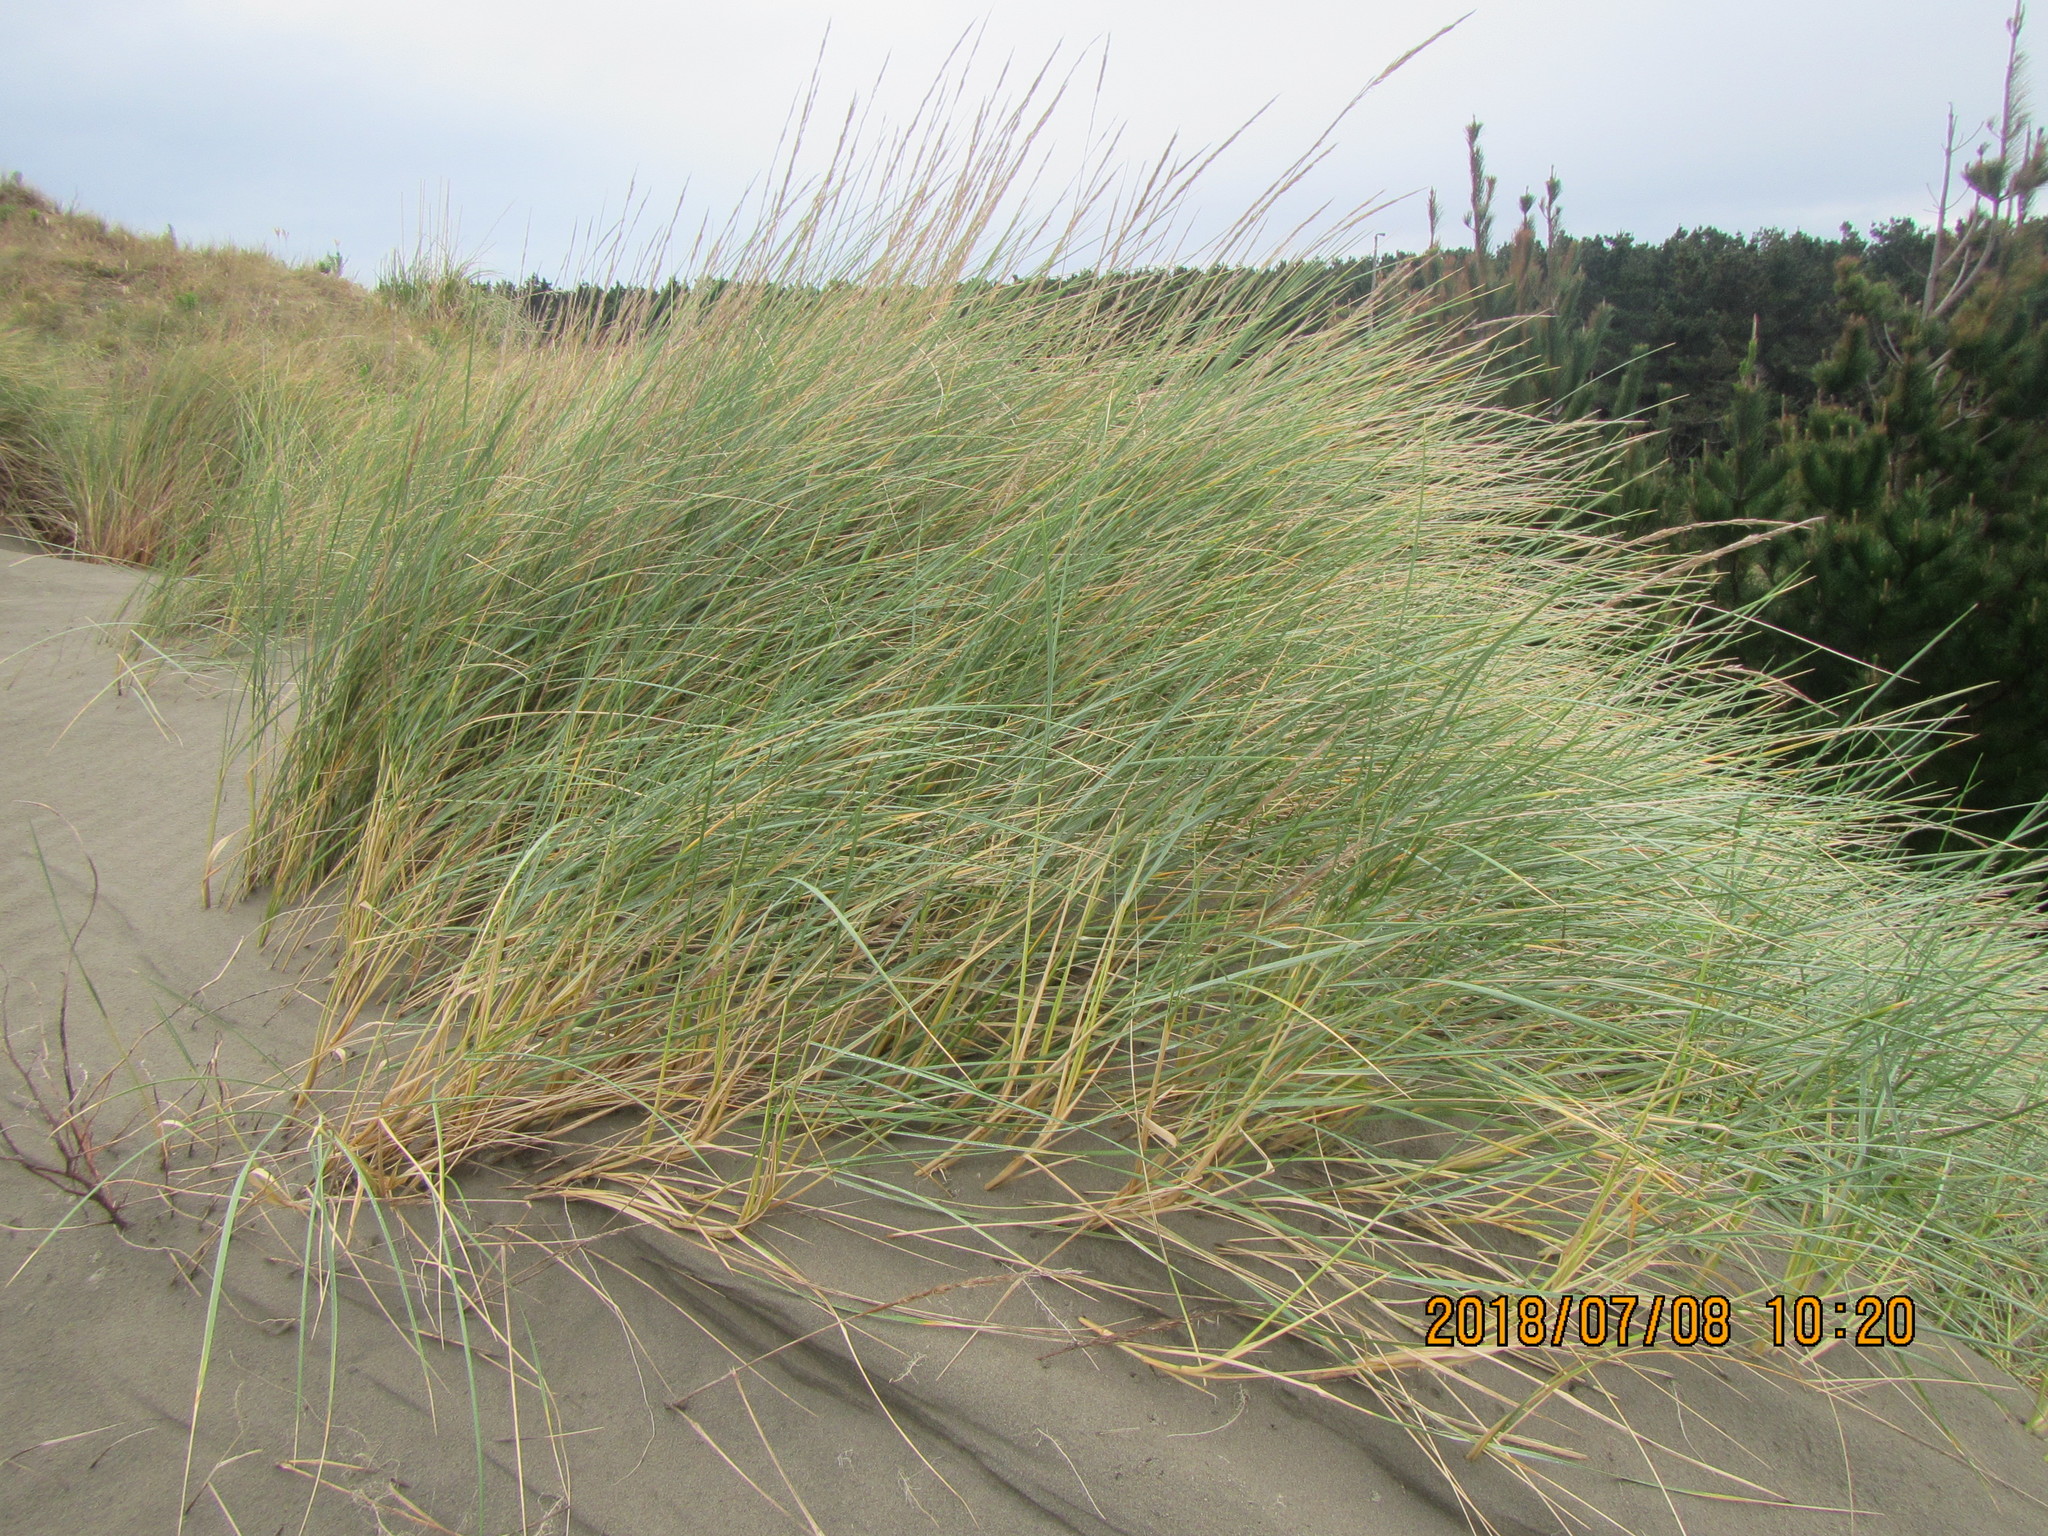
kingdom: Plantae
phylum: Tracheophyta
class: Liliopsida
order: Poales
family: Poaceae
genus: Calamagrostis
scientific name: Calamagrostis arenaria
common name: European beachgrass
